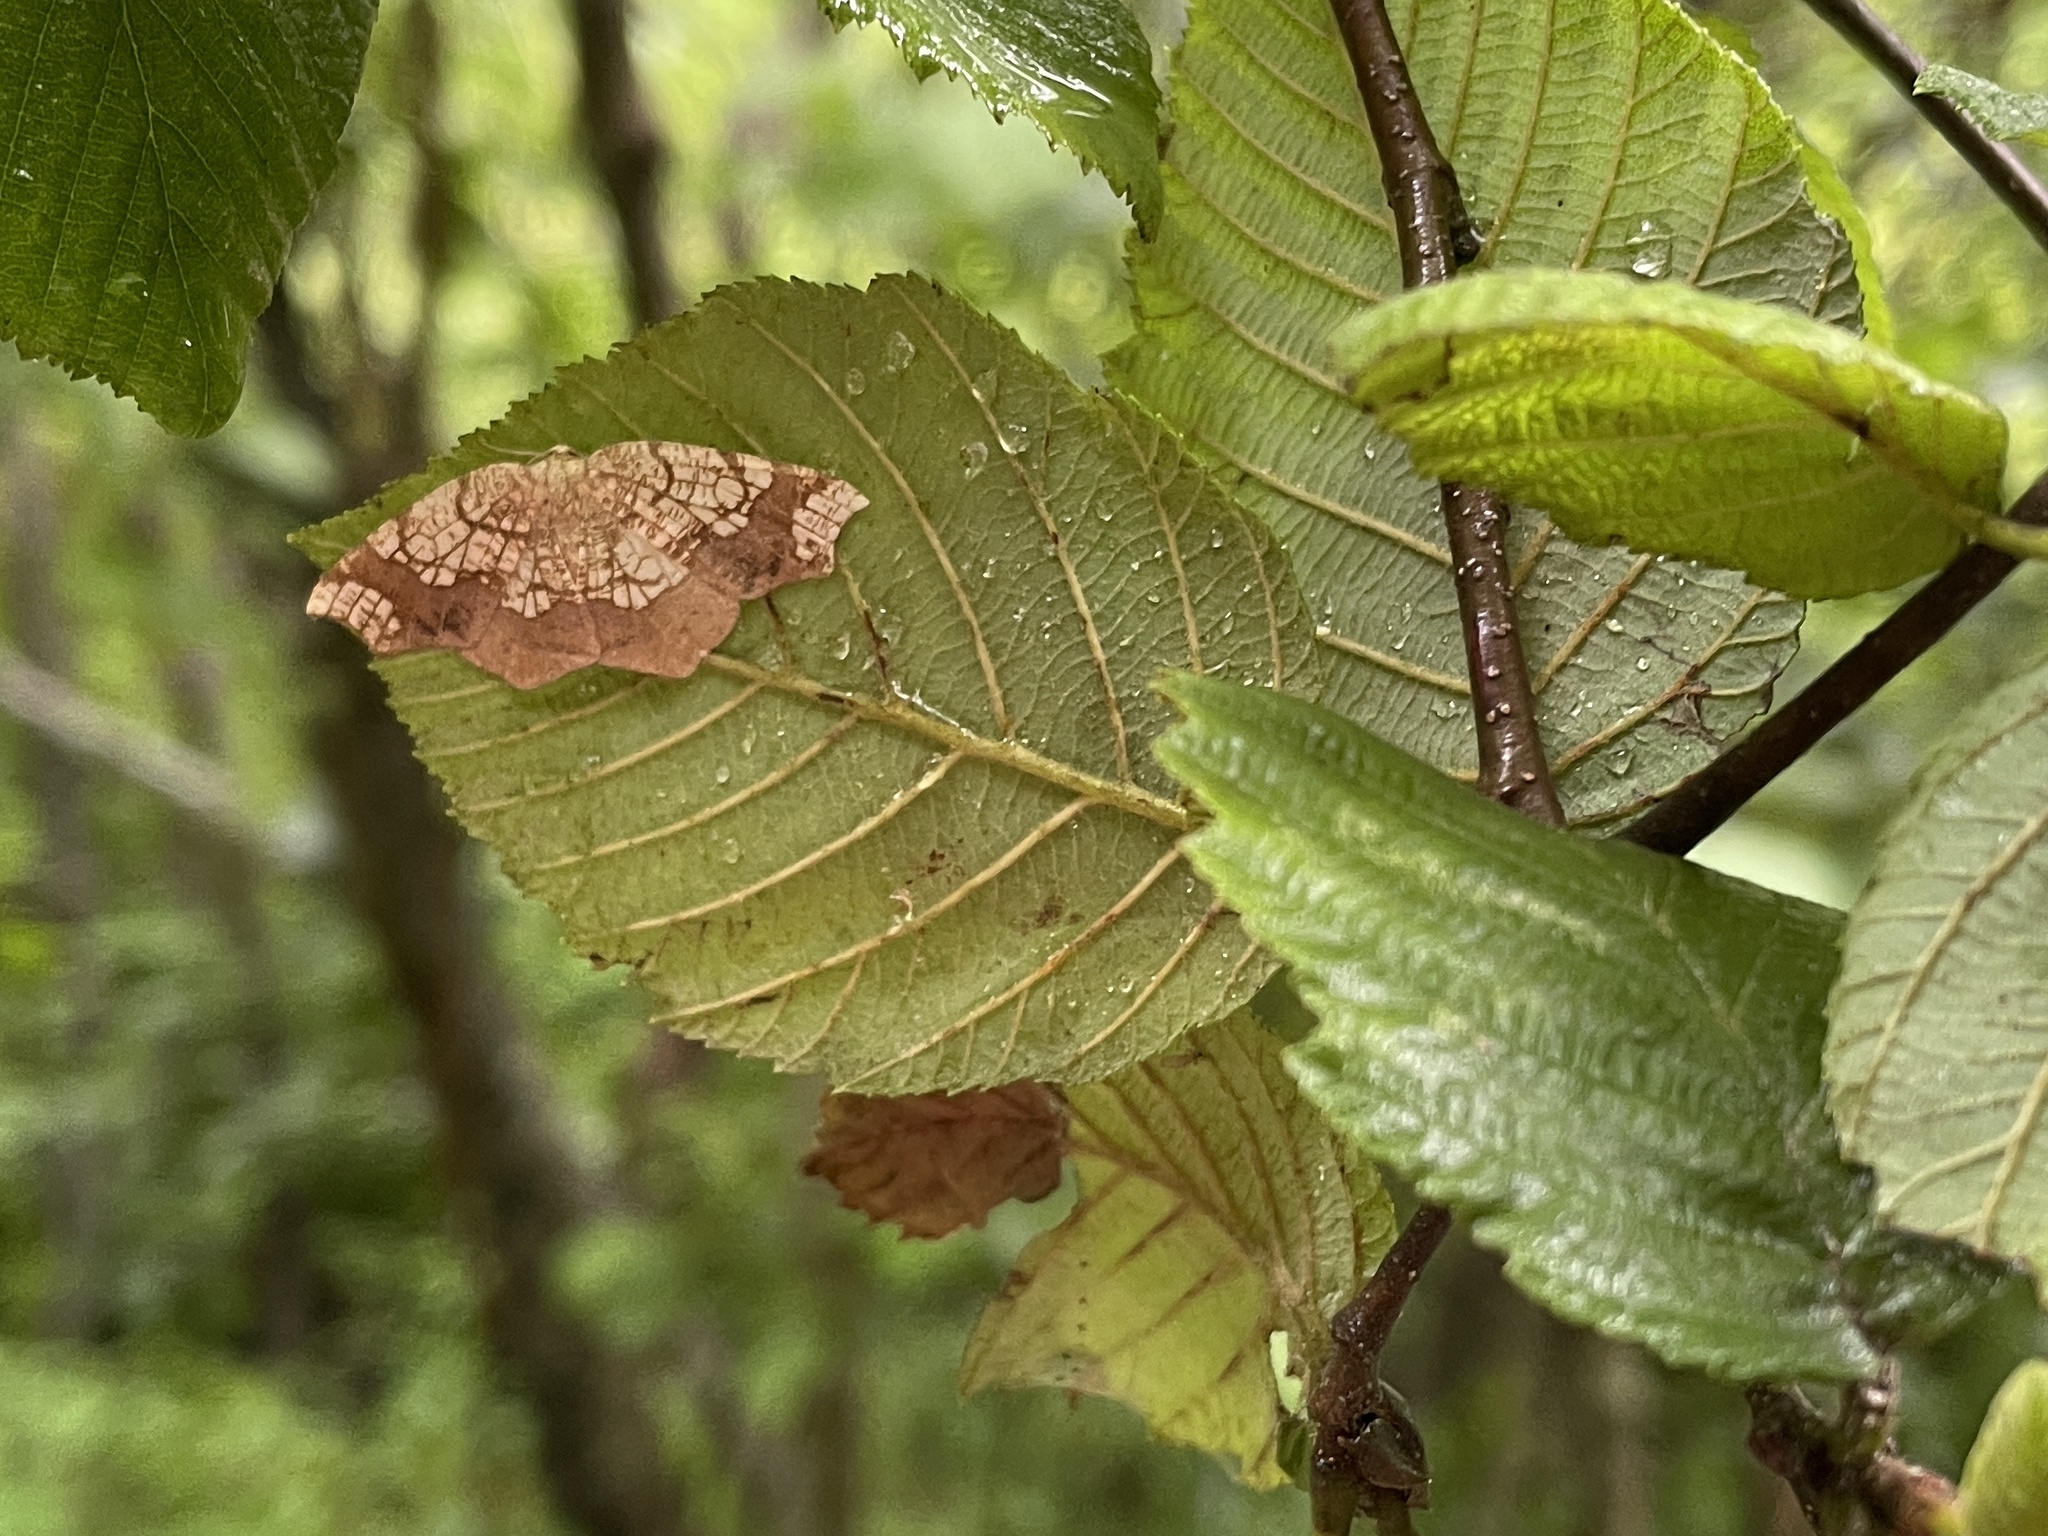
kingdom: Animalia
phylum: Arthropoda
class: Insecta
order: Lepidoptera
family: Geometridae
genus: Nematocampa
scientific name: Nematocampa resistaria
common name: Horned spanworm moth
